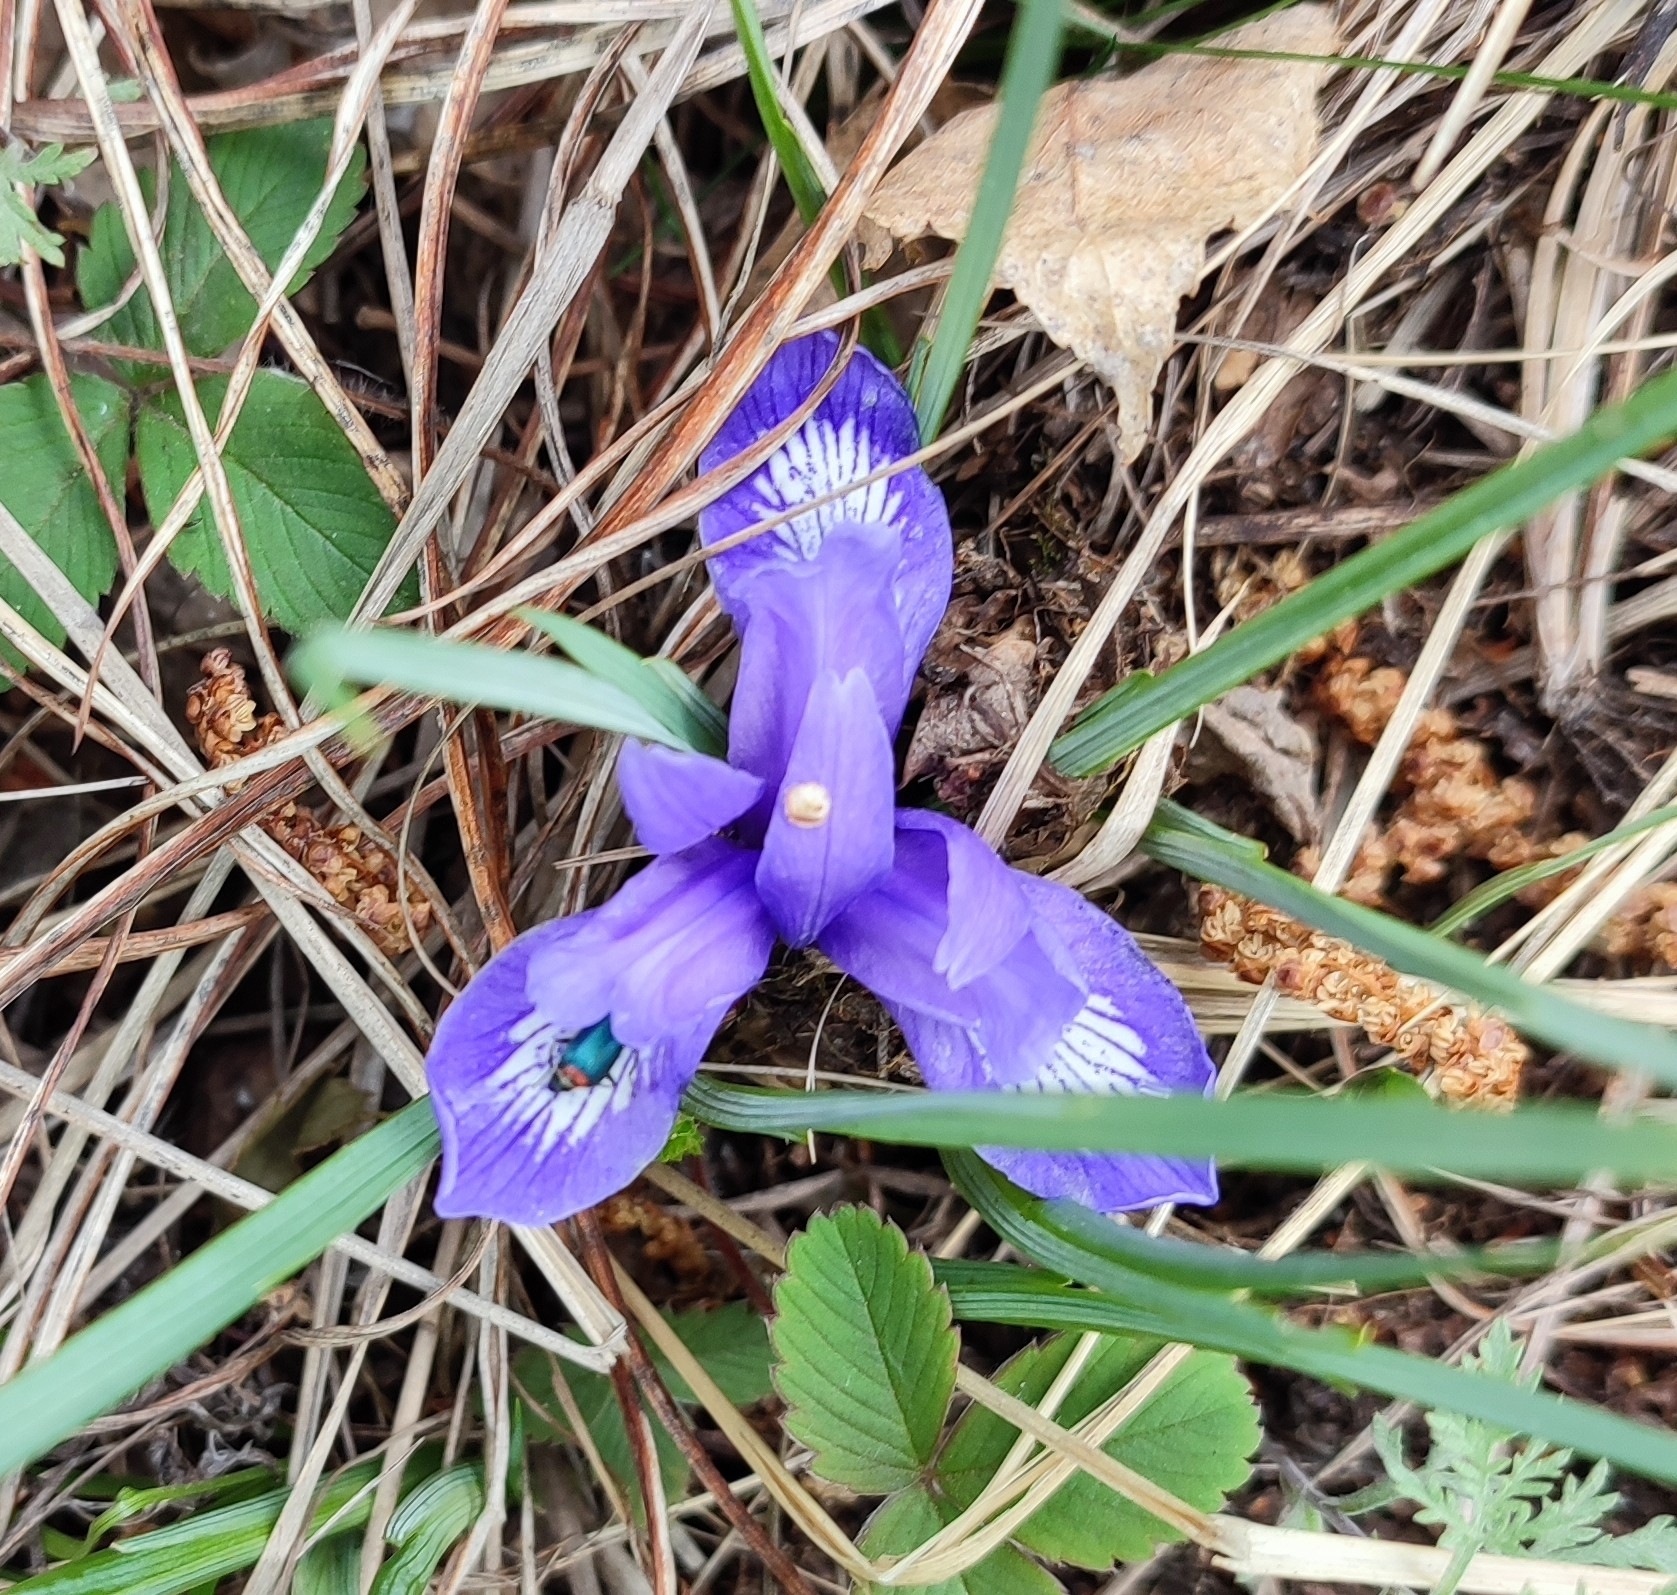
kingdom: Plantae
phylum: Tracheophyta
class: Liliopsida
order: Asparagales
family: Iridaceae
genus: Iris
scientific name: Iris ruthenica
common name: Purple-bract iris
